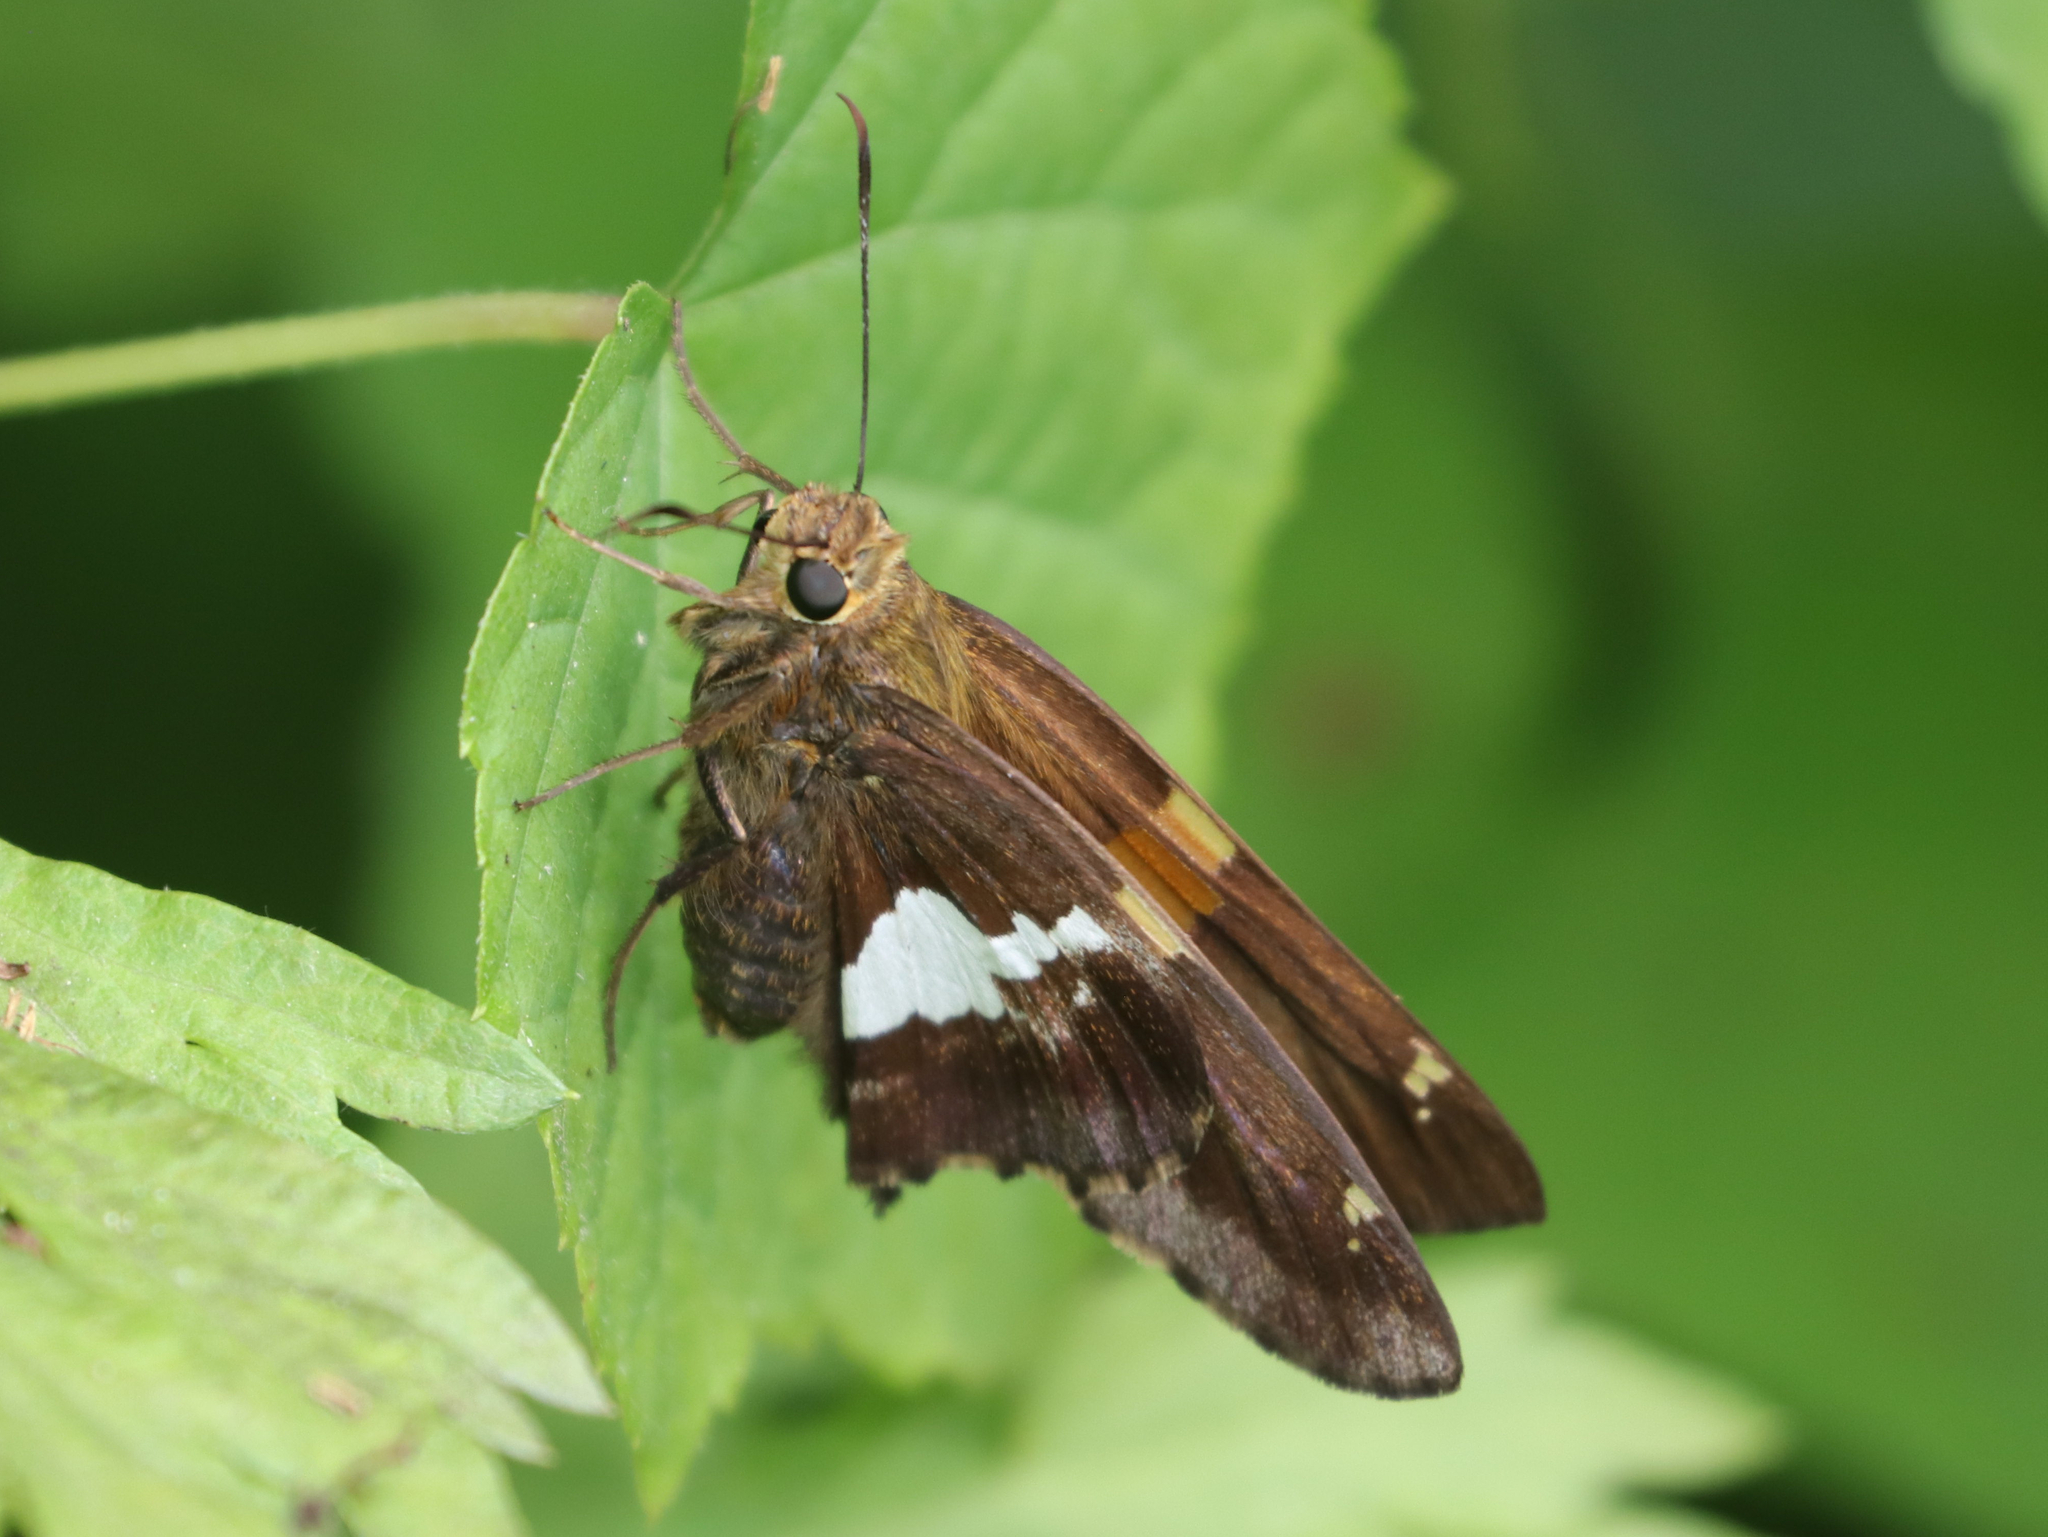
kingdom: Animalia
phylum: Arthropoda
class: Insecta
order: Lepidoptera
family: Hesperiidae
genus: Epargyreus
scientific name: Epargyreus clarus
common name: Silver-spotted skipper
